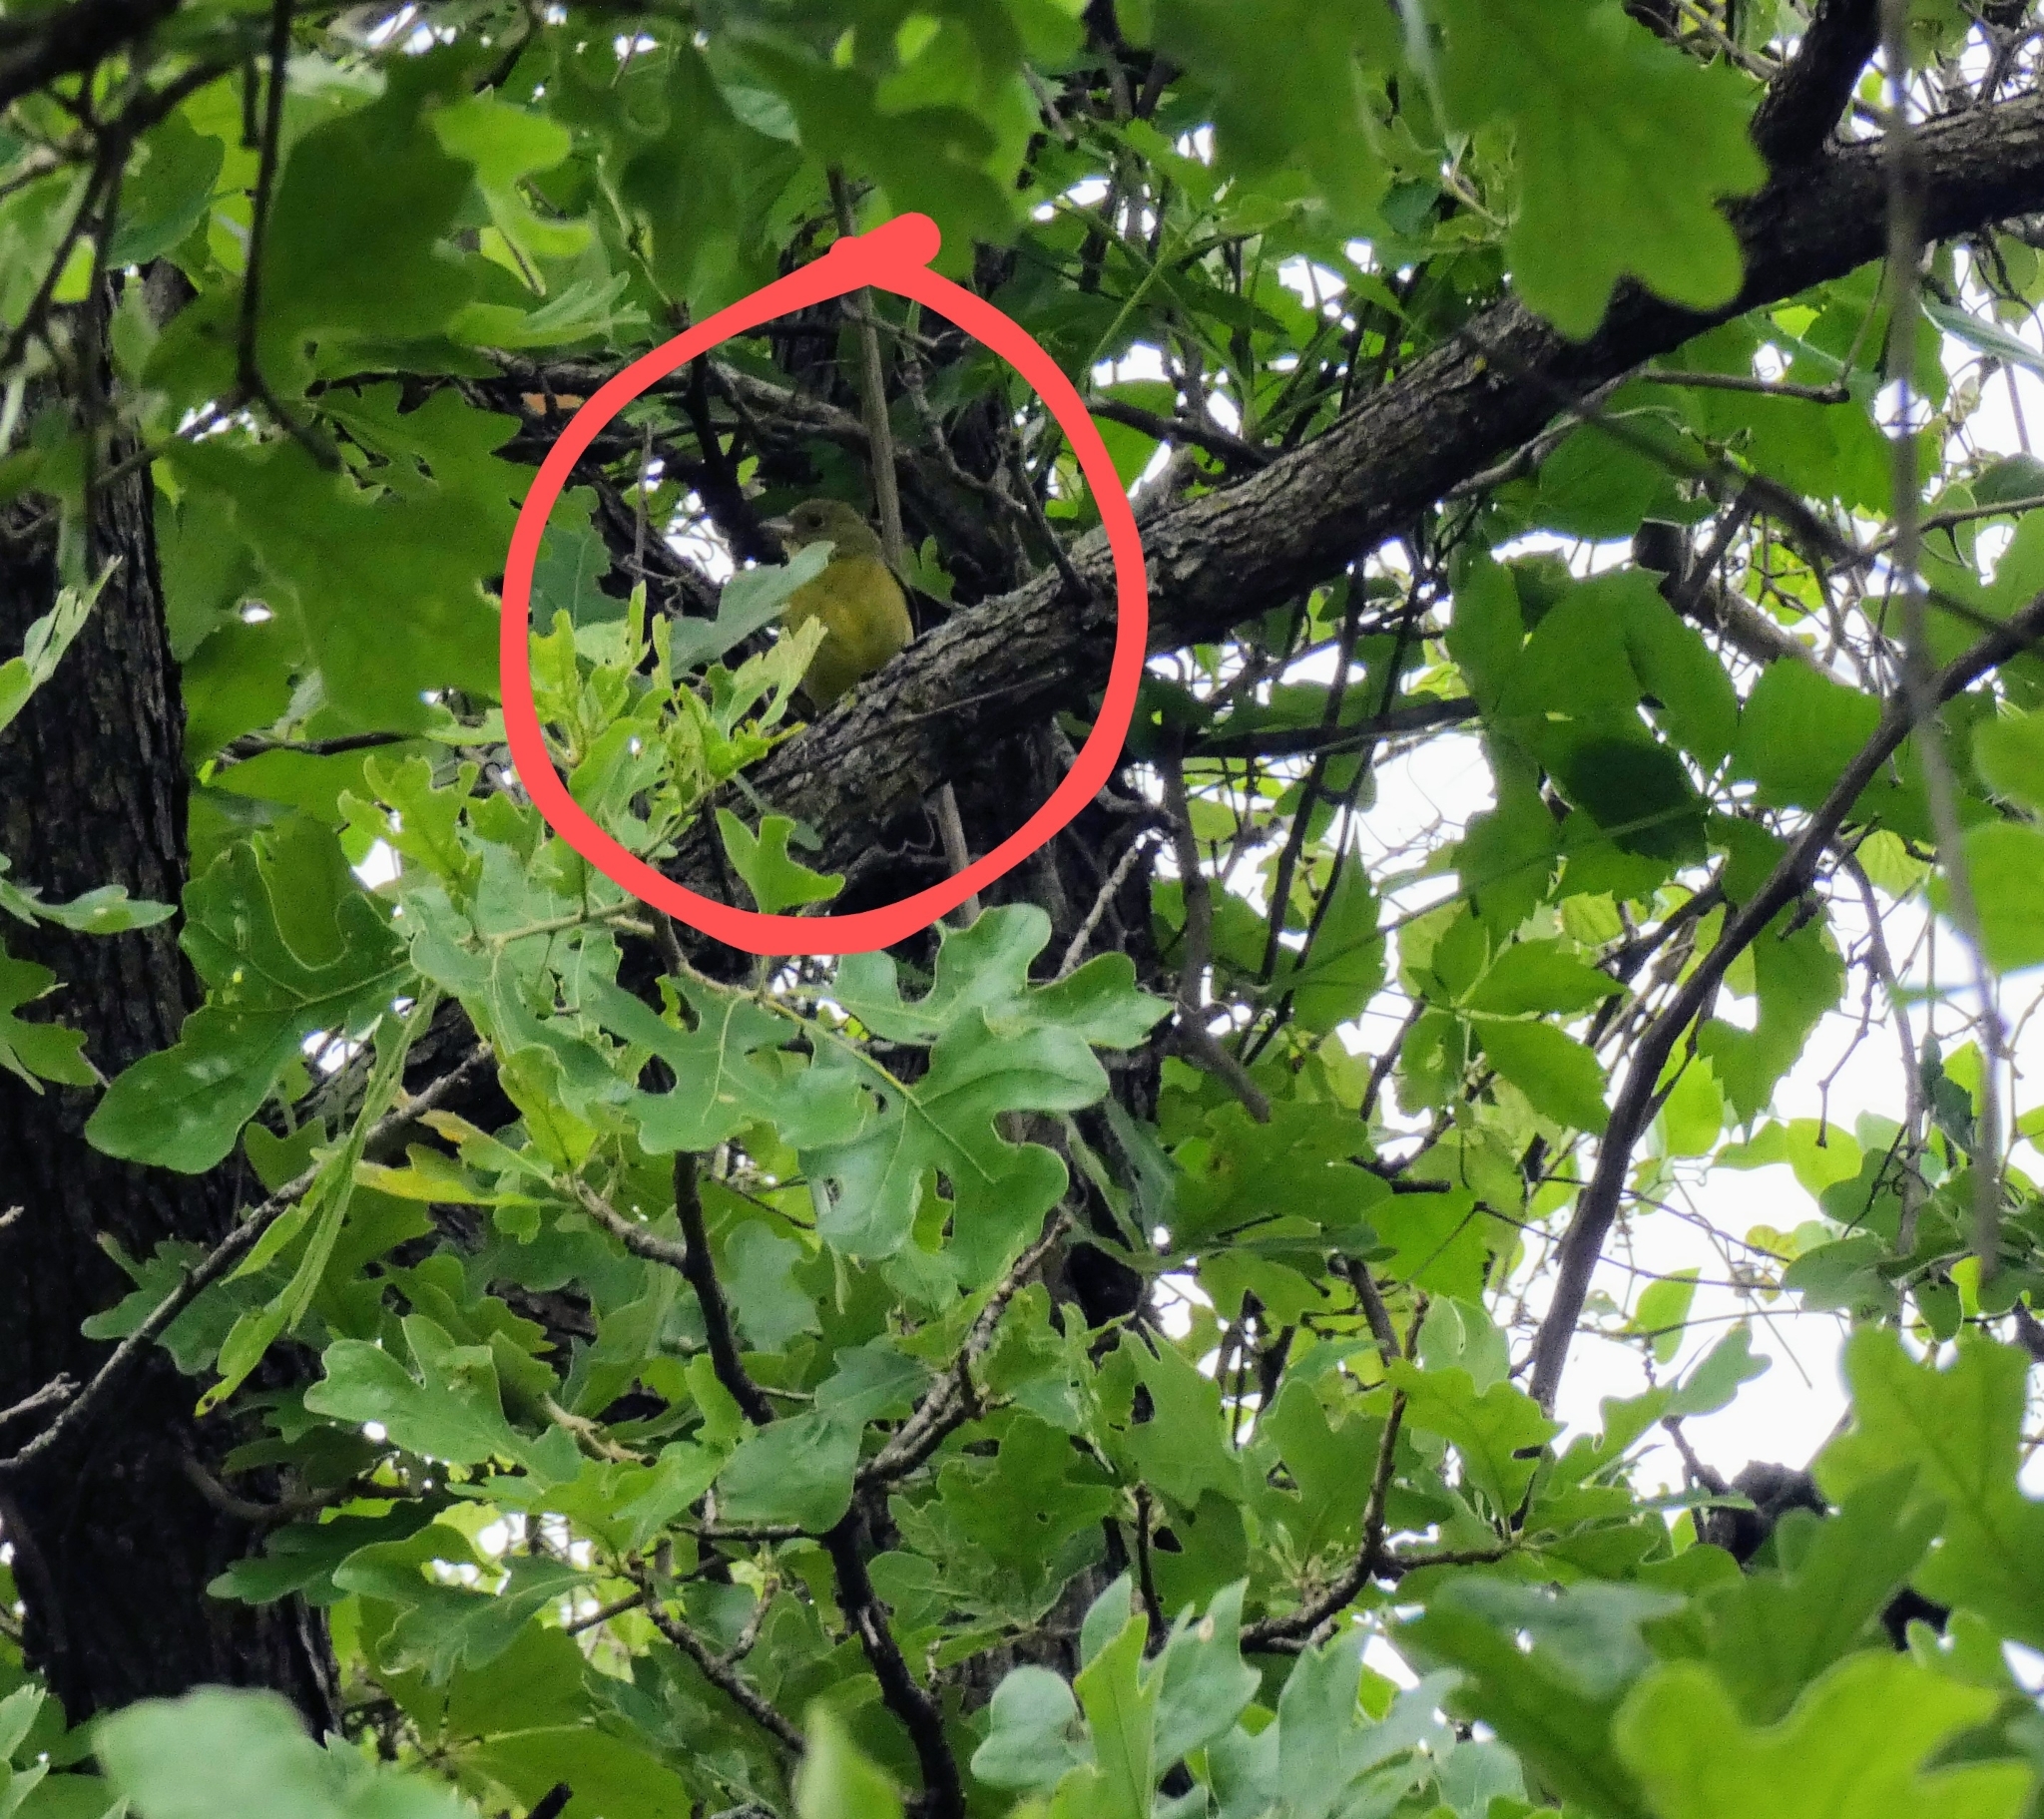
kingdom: Animalia
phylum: Chordata
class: Aves
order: Passeriformes
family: Cardinalidae
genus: Passerina
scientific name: Passerina ciris
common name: Painted bunting
